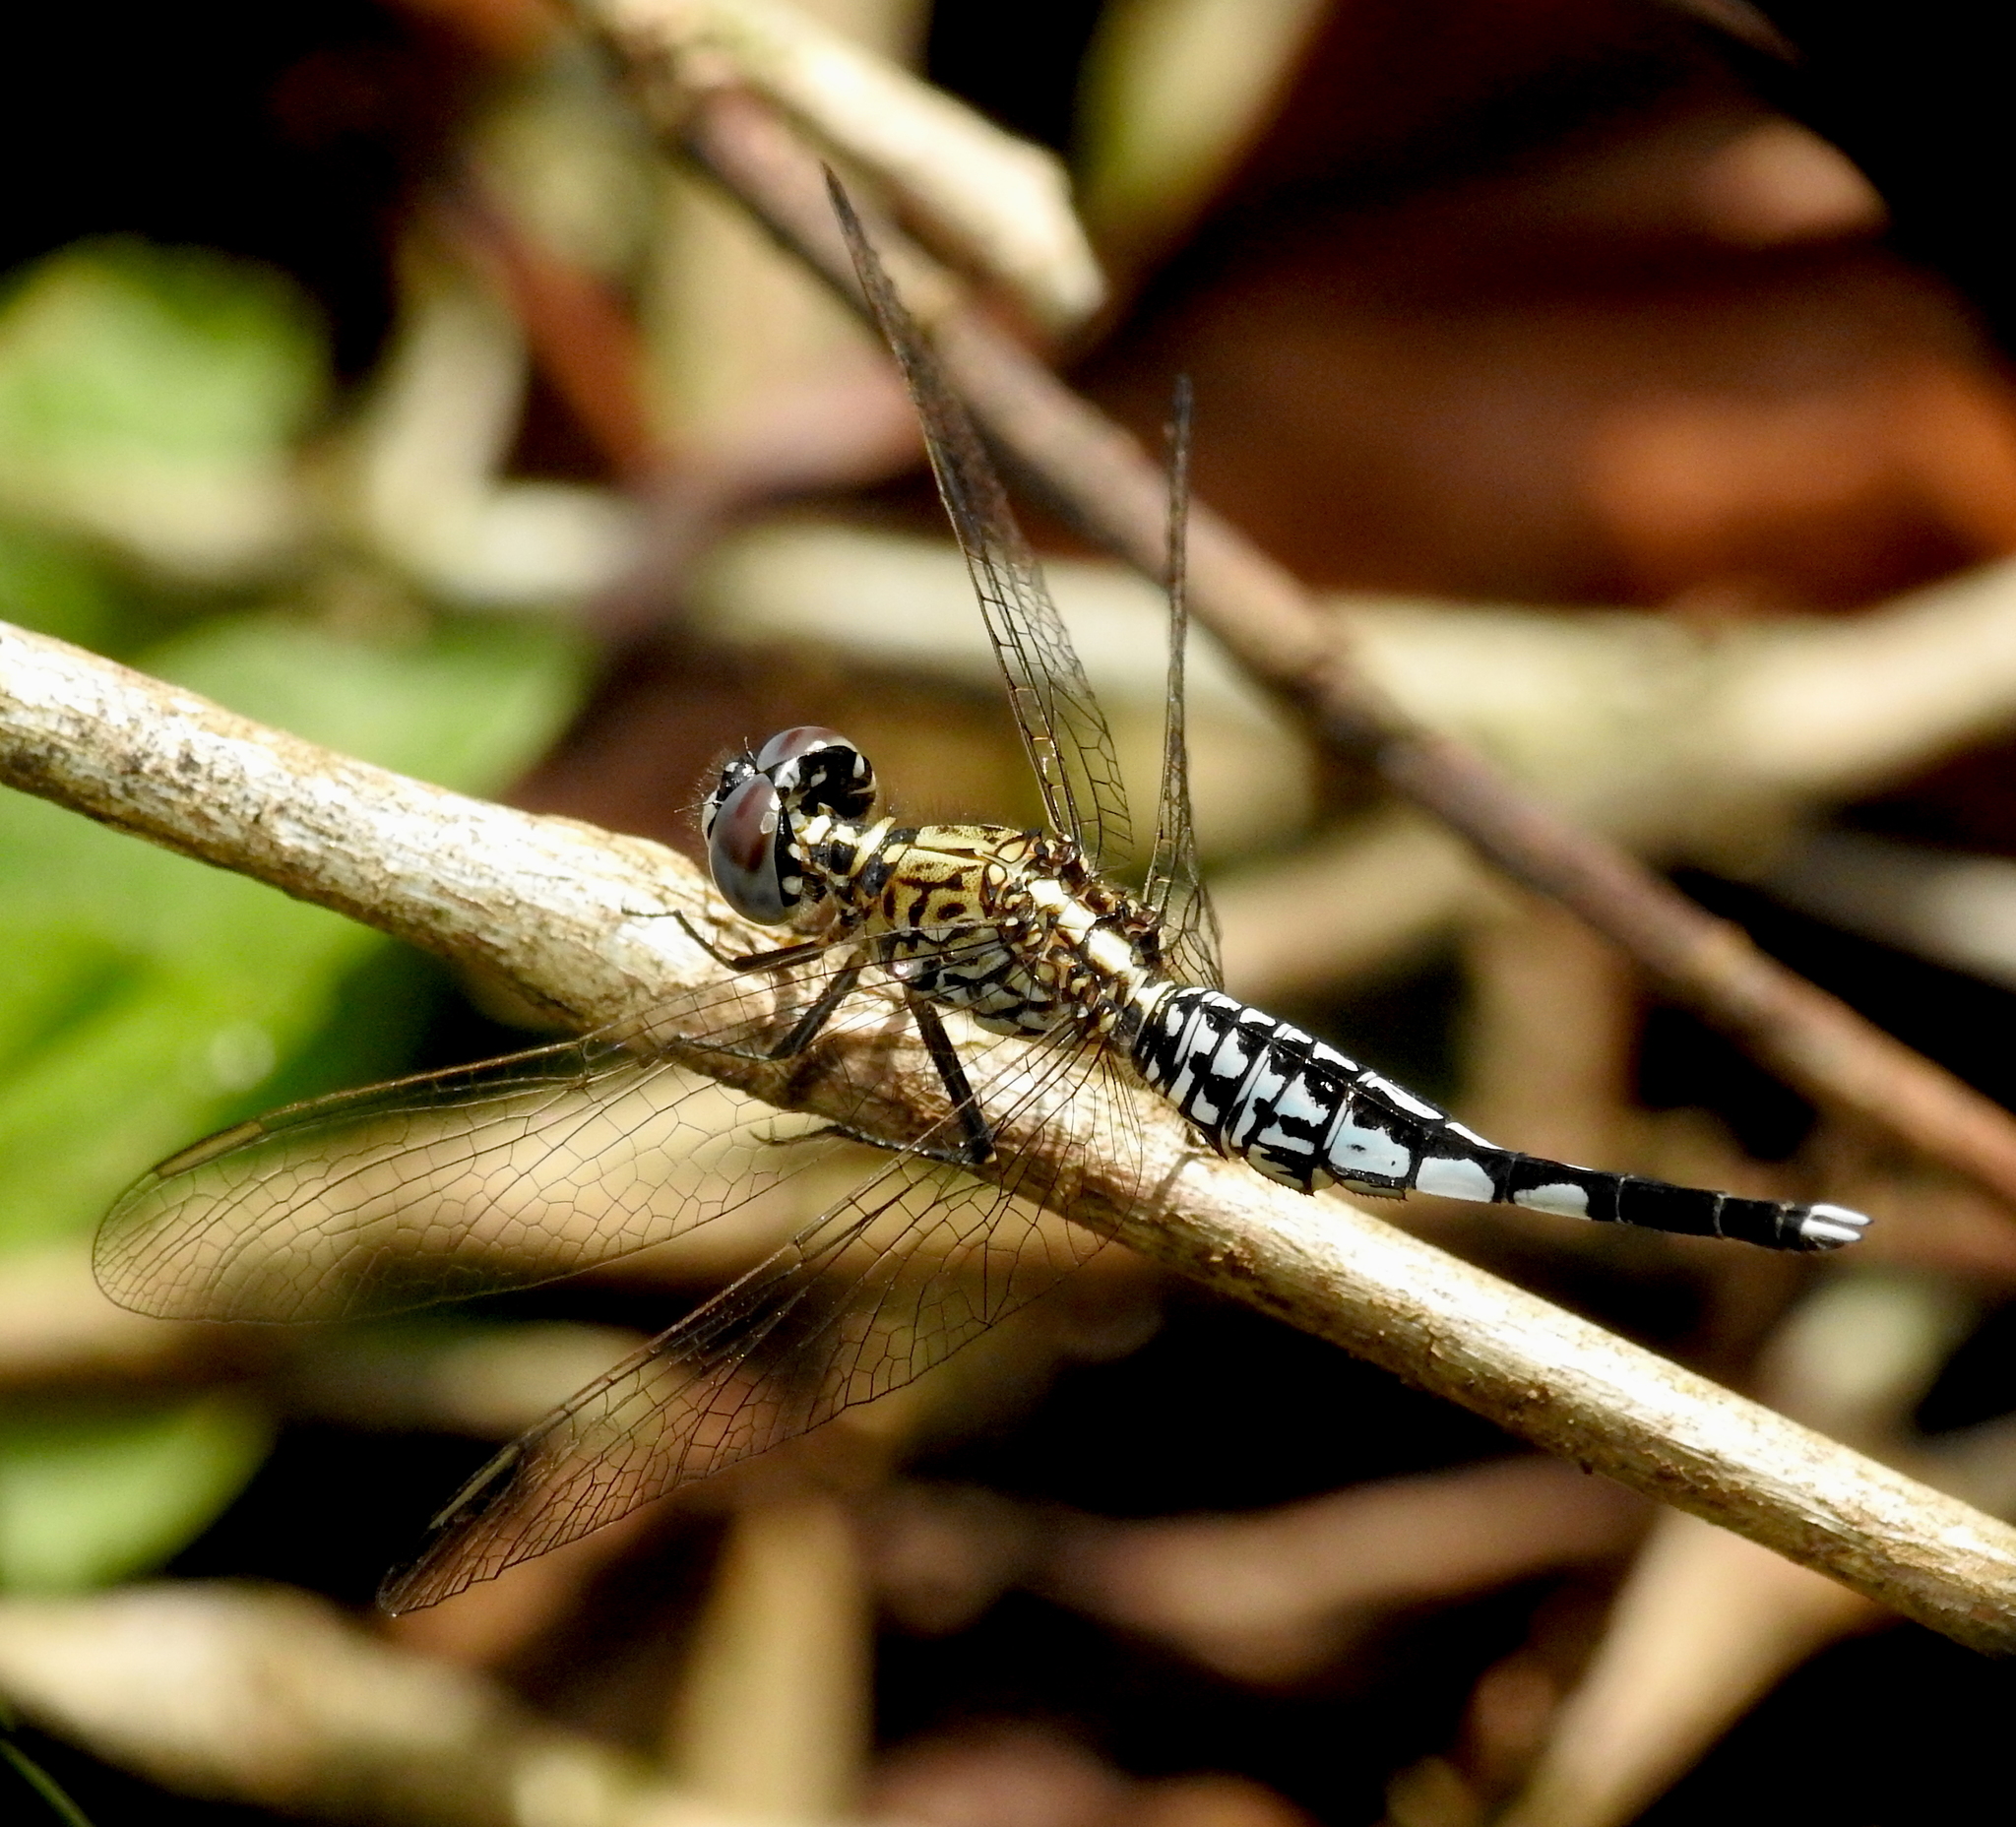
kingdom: Animalia
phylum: Arthropoda
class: Insecta
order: Odonata
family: Libellulidae
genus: Acisoma
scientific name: Acisoma panorpoides
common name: Asian pintail
